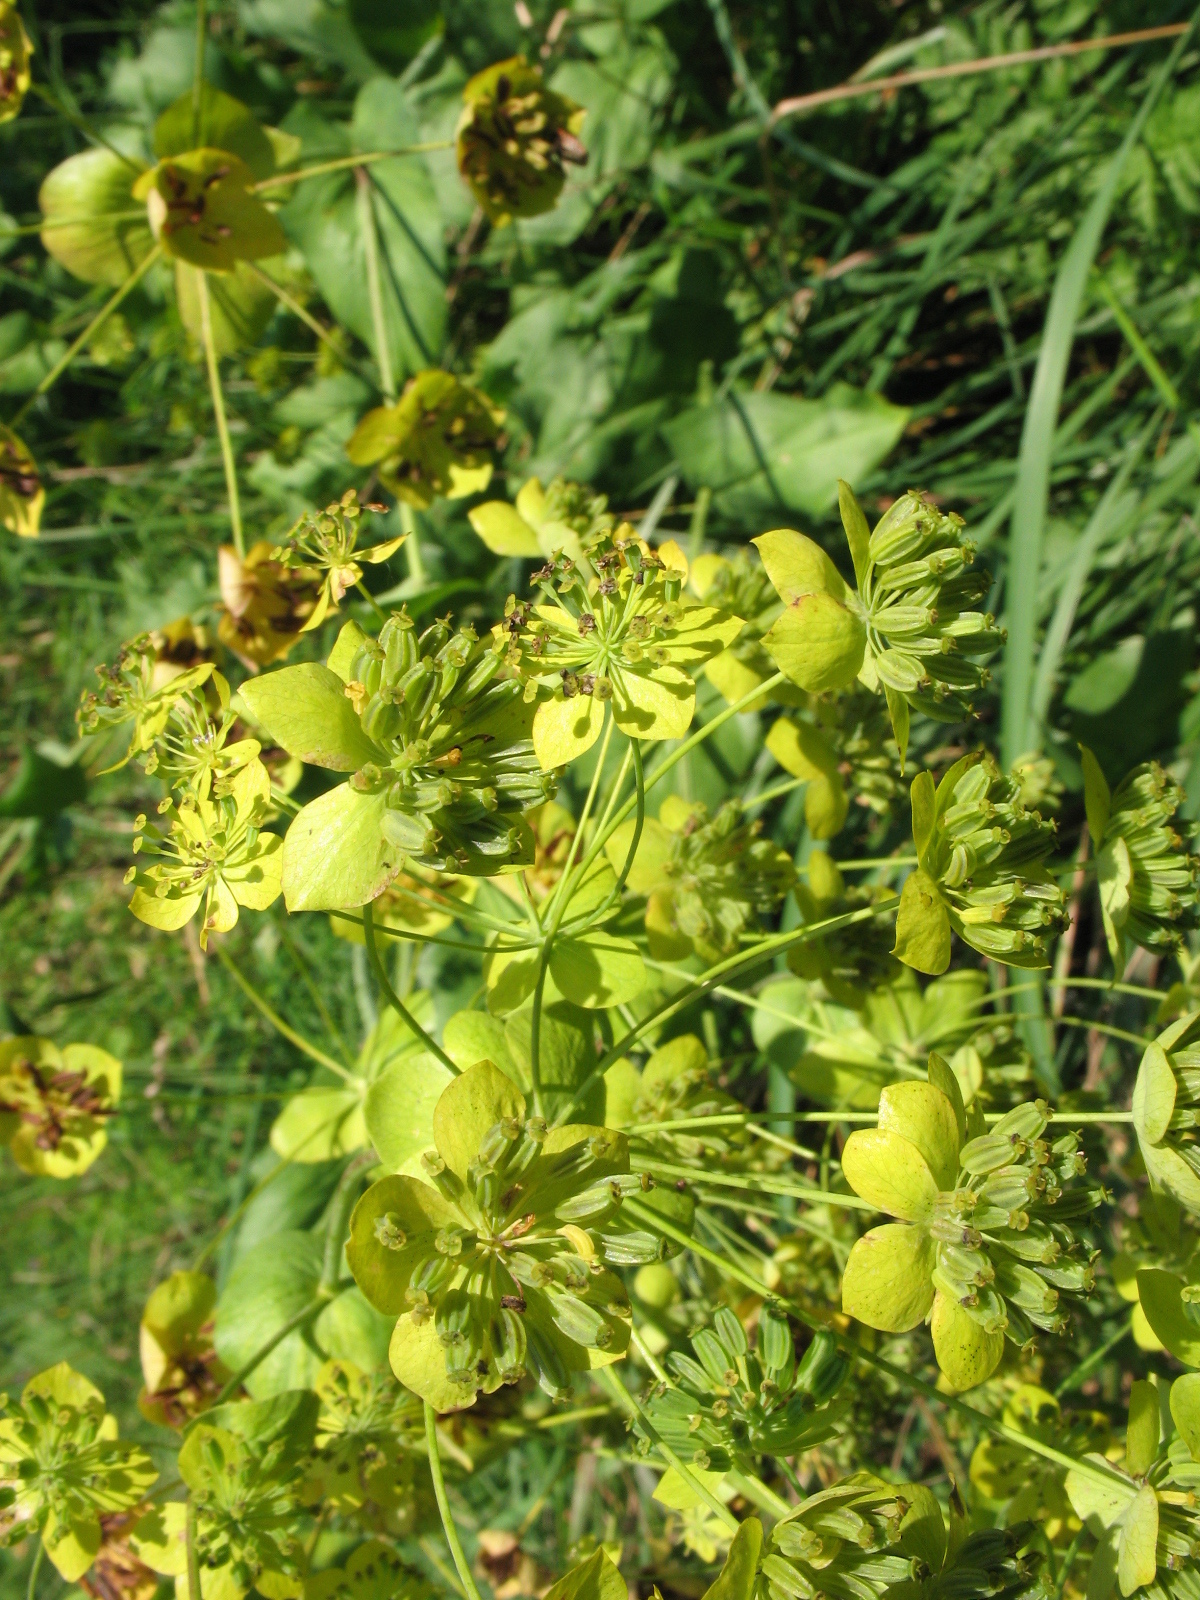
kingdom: Plantae
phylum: Tracheophyta
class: Magnoliopsida
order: Apiales
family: Apiaceae
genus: Bupleurum
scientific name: Bupleurum aureum
